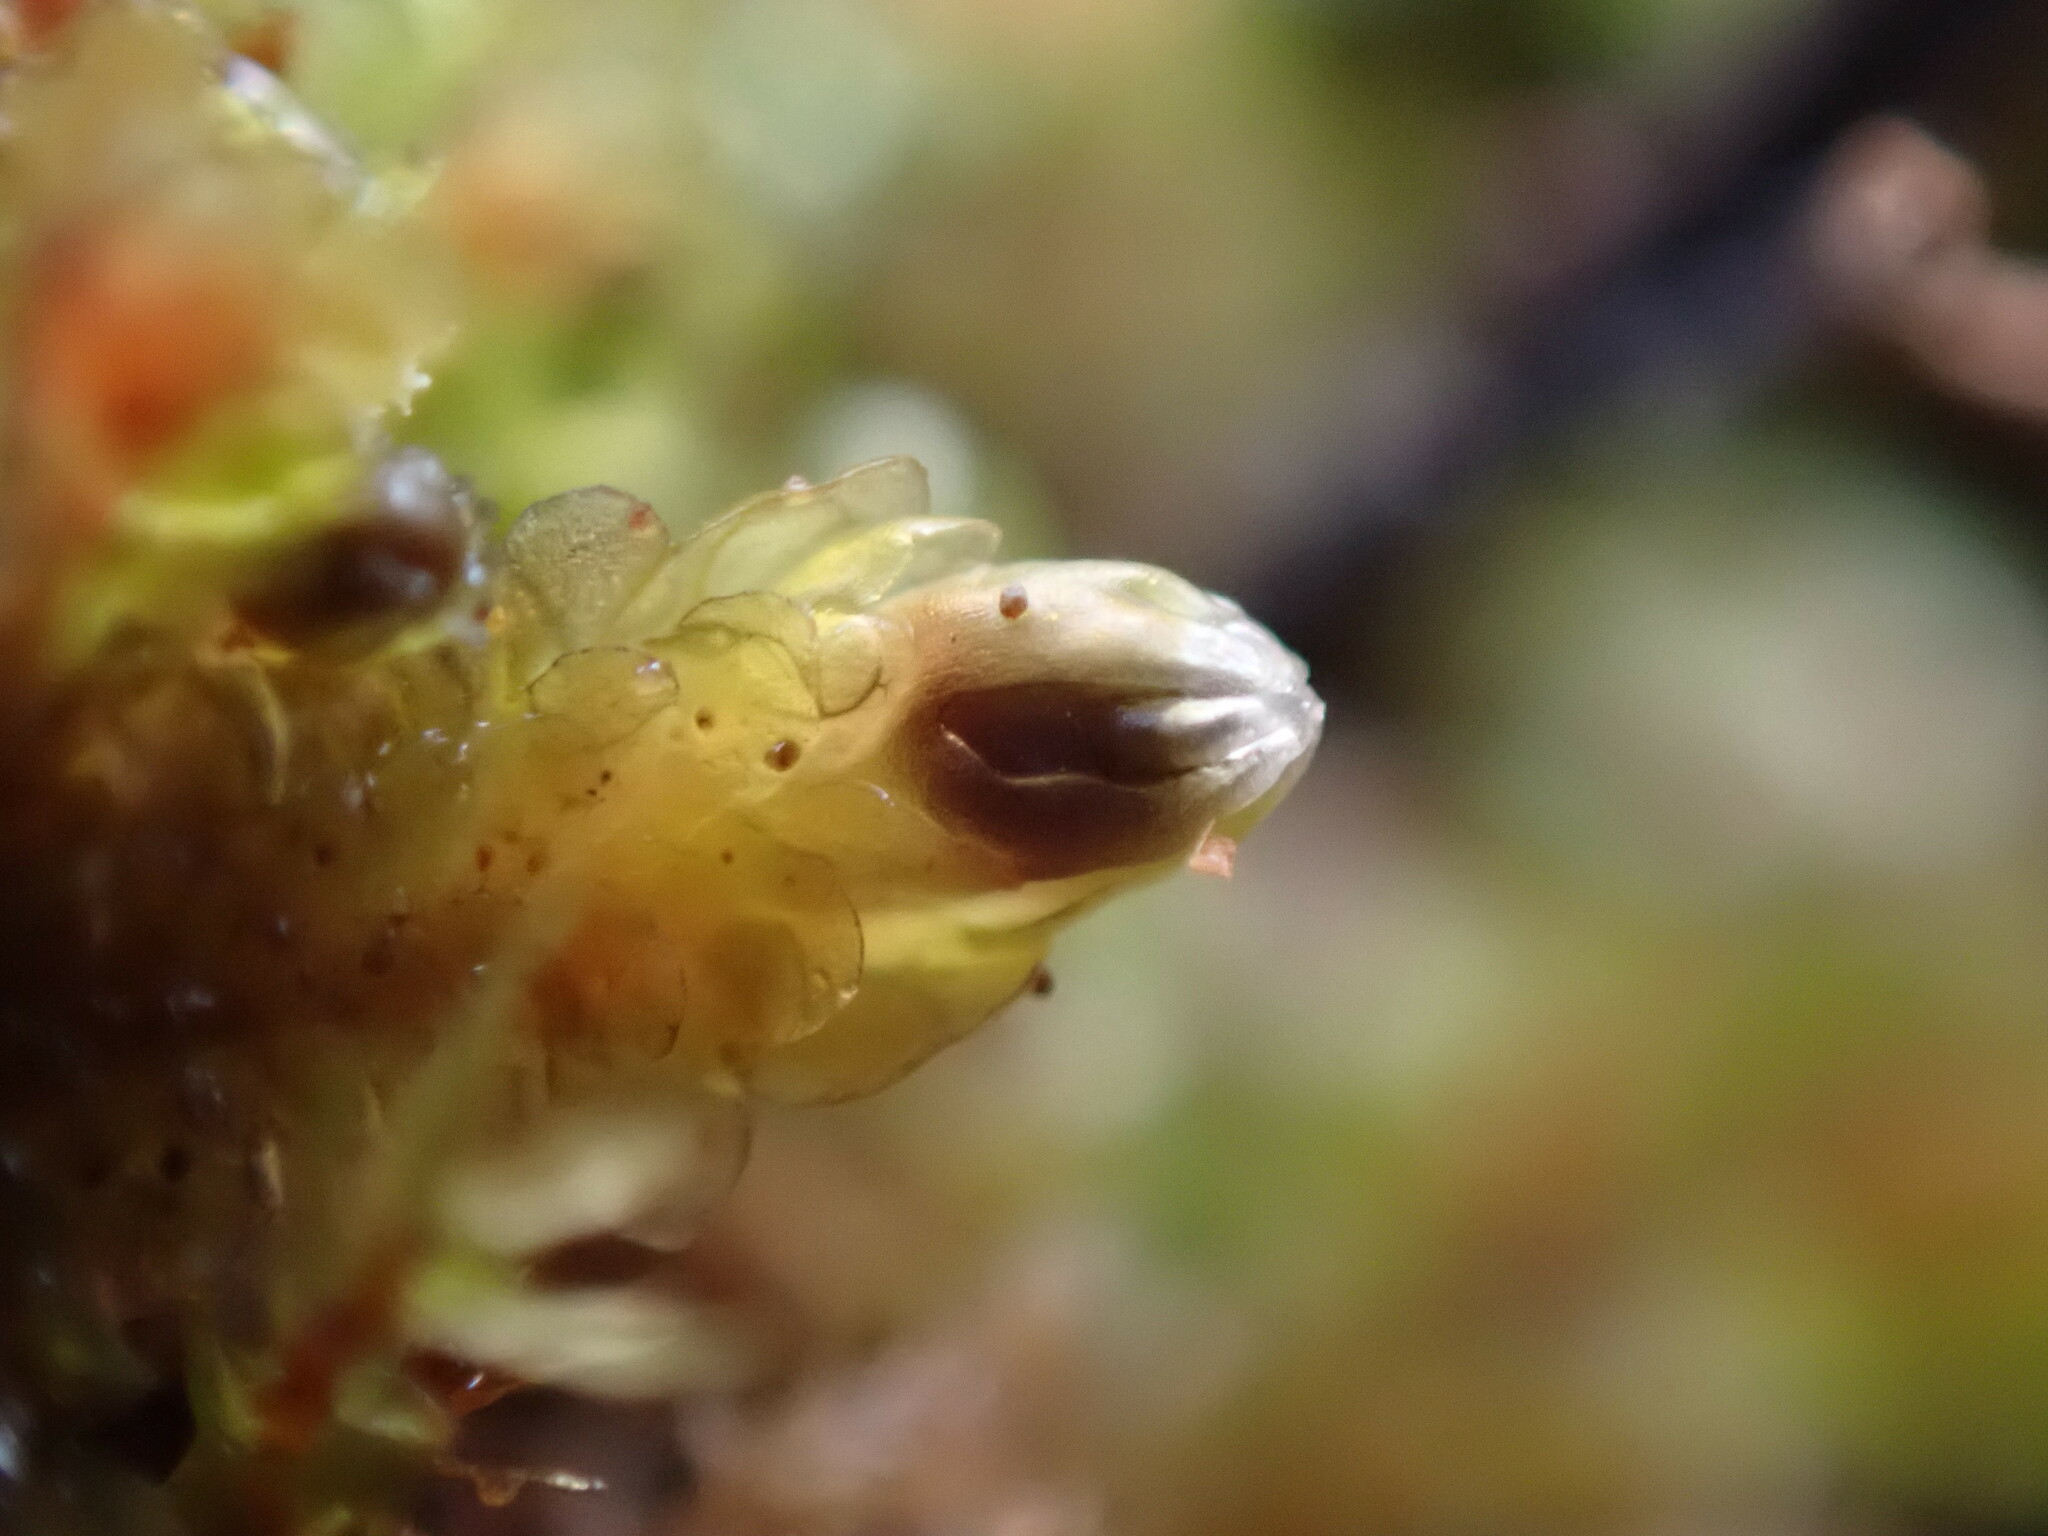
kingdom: Plantae
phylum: Marchantiophyta
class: Jungermanniopsida
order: Jungermanniales
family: Scapaniaceae
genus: Diplophyllum
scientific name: Diplophyllum obtusifolium
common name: Blunt-leaved earwort
